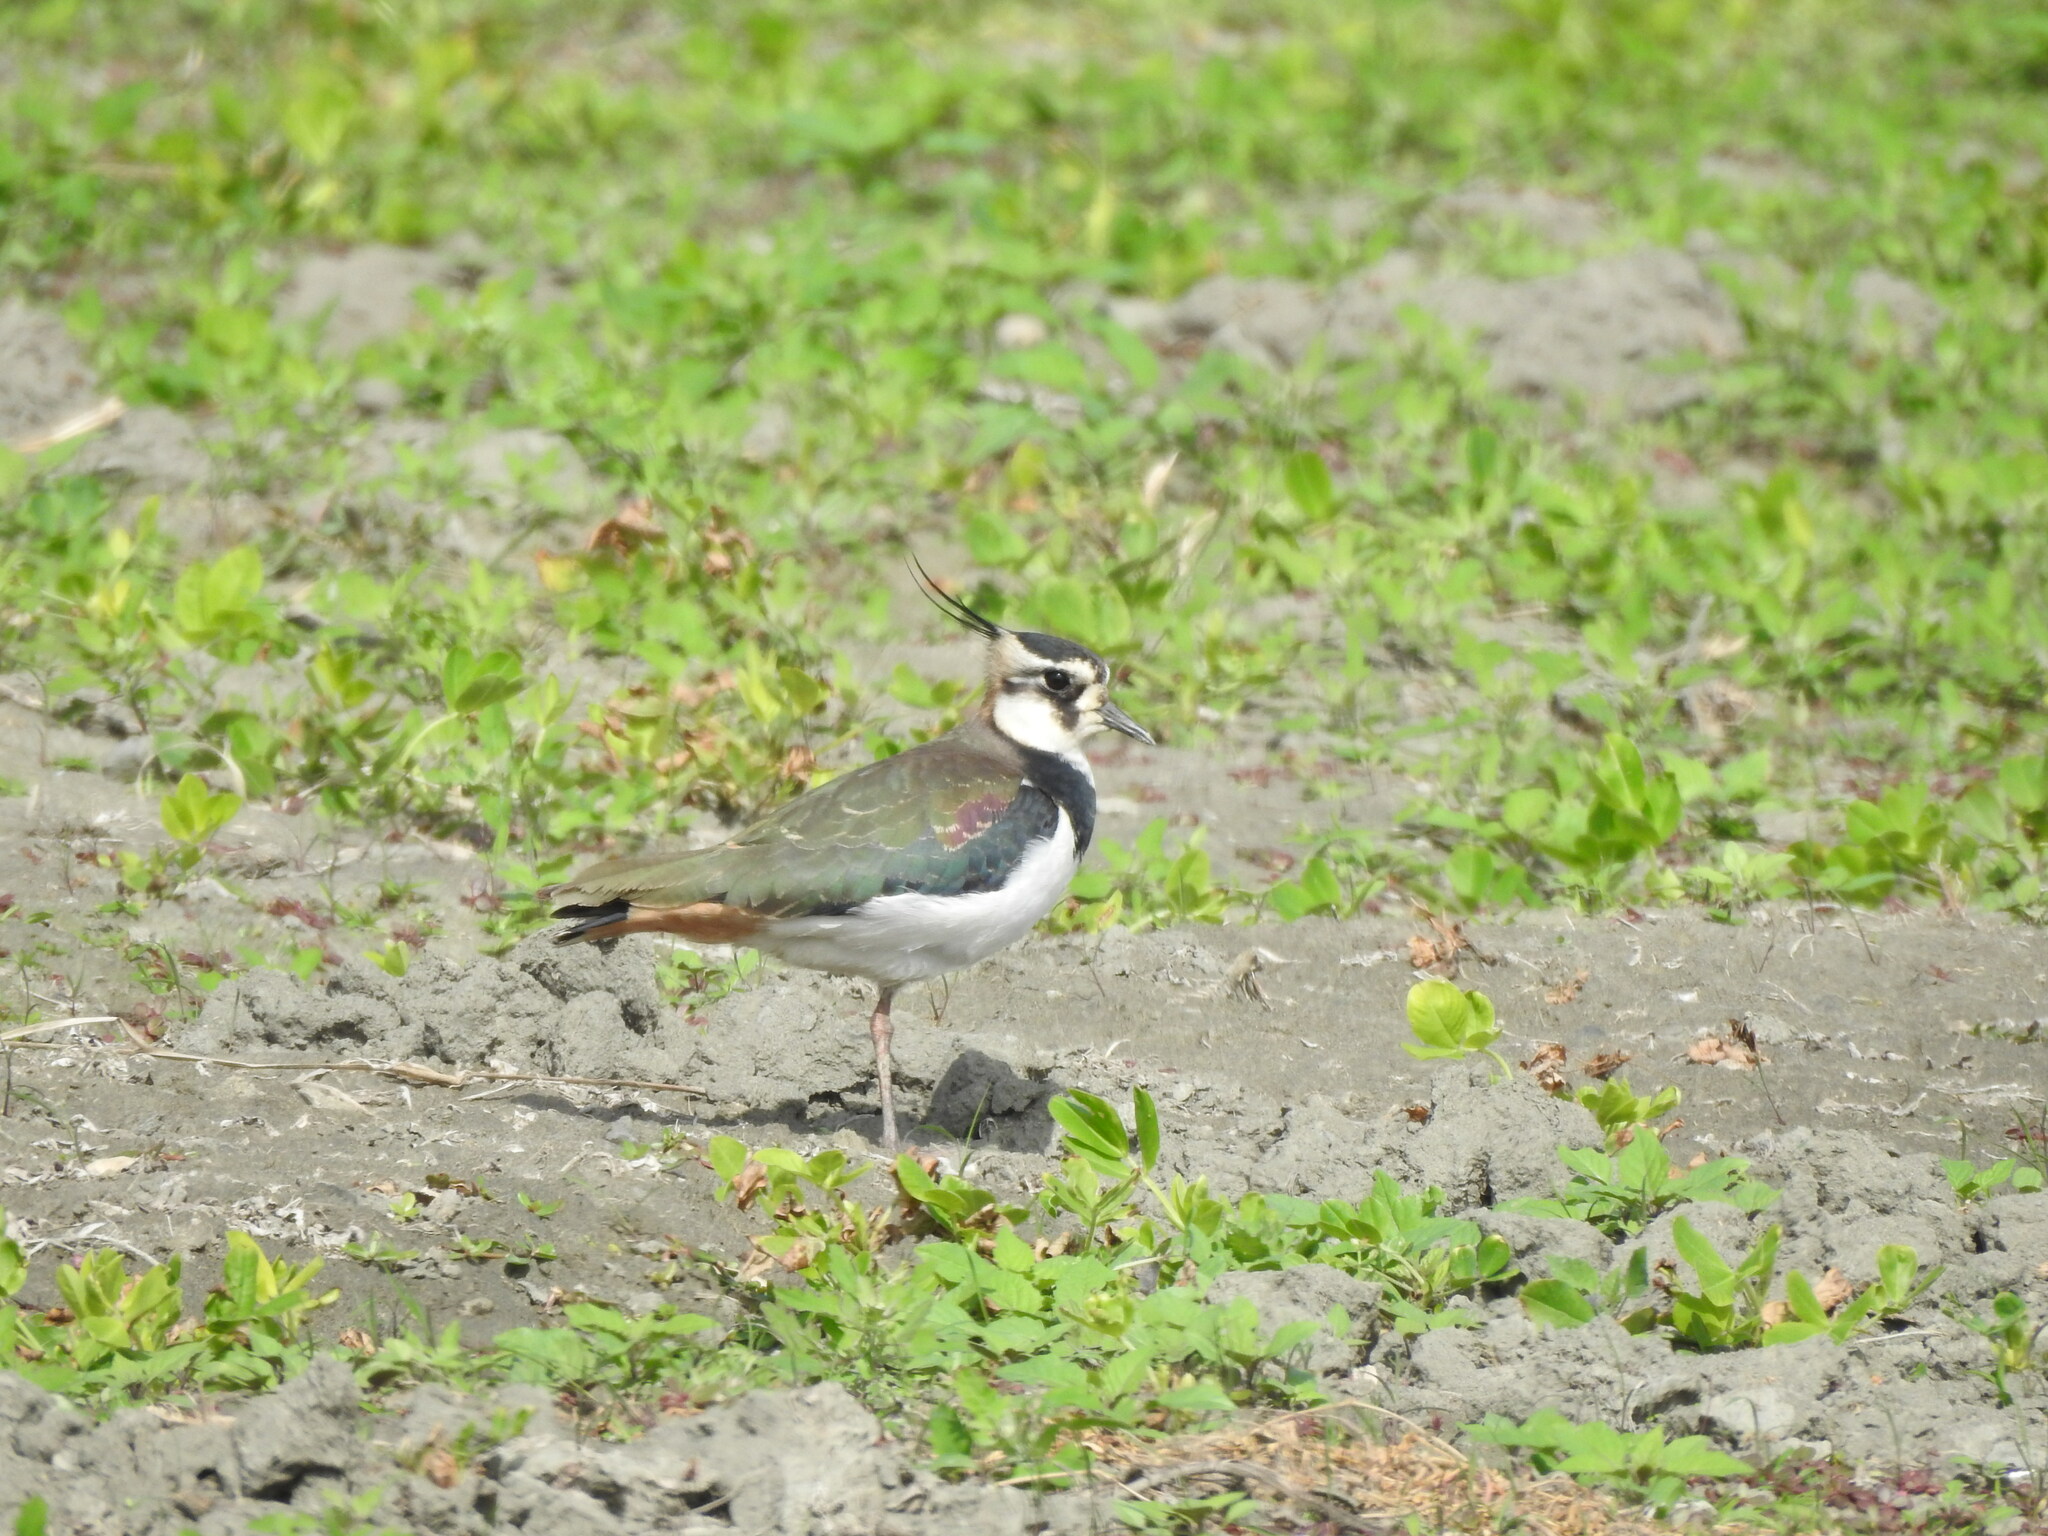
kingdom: Animalia
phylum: Chordata
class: Aves
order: Charadriiformes
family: Charadriidae
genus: Vanellus
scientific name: Vanellus vanellus
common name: Northern lapwing
